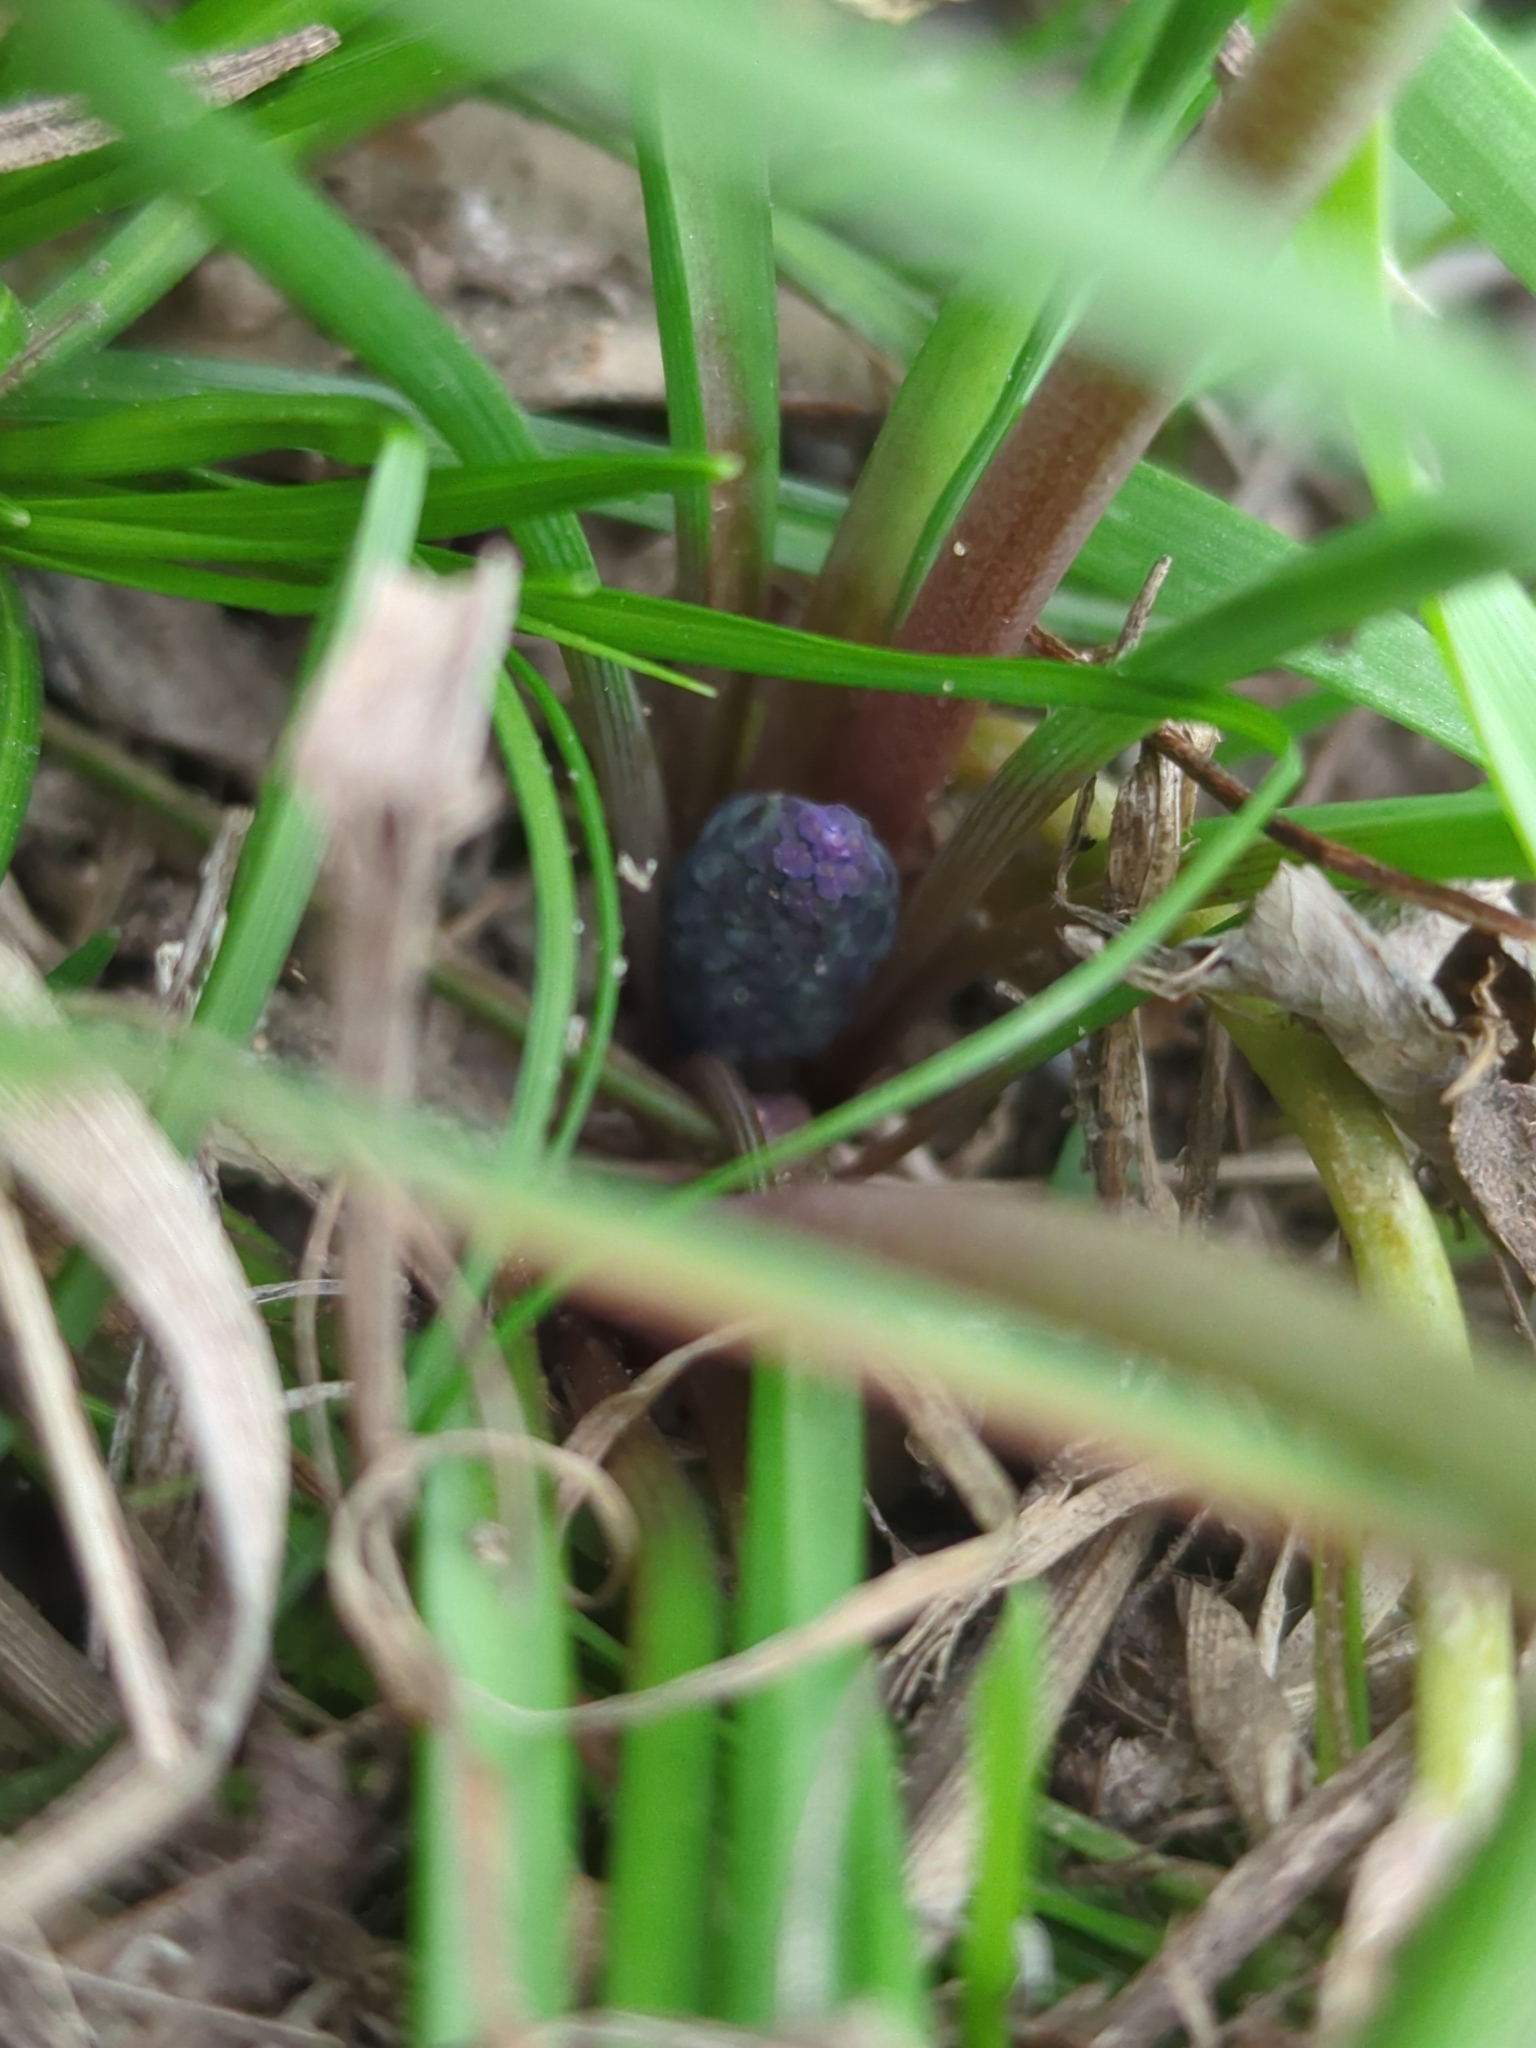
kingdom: Plantae
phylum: Tracheophyta
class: Liliopsida
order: Asparagales
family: Asparagaceae
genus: Muscari
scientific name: Muscari neglectum
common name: Grape-hyacinth
